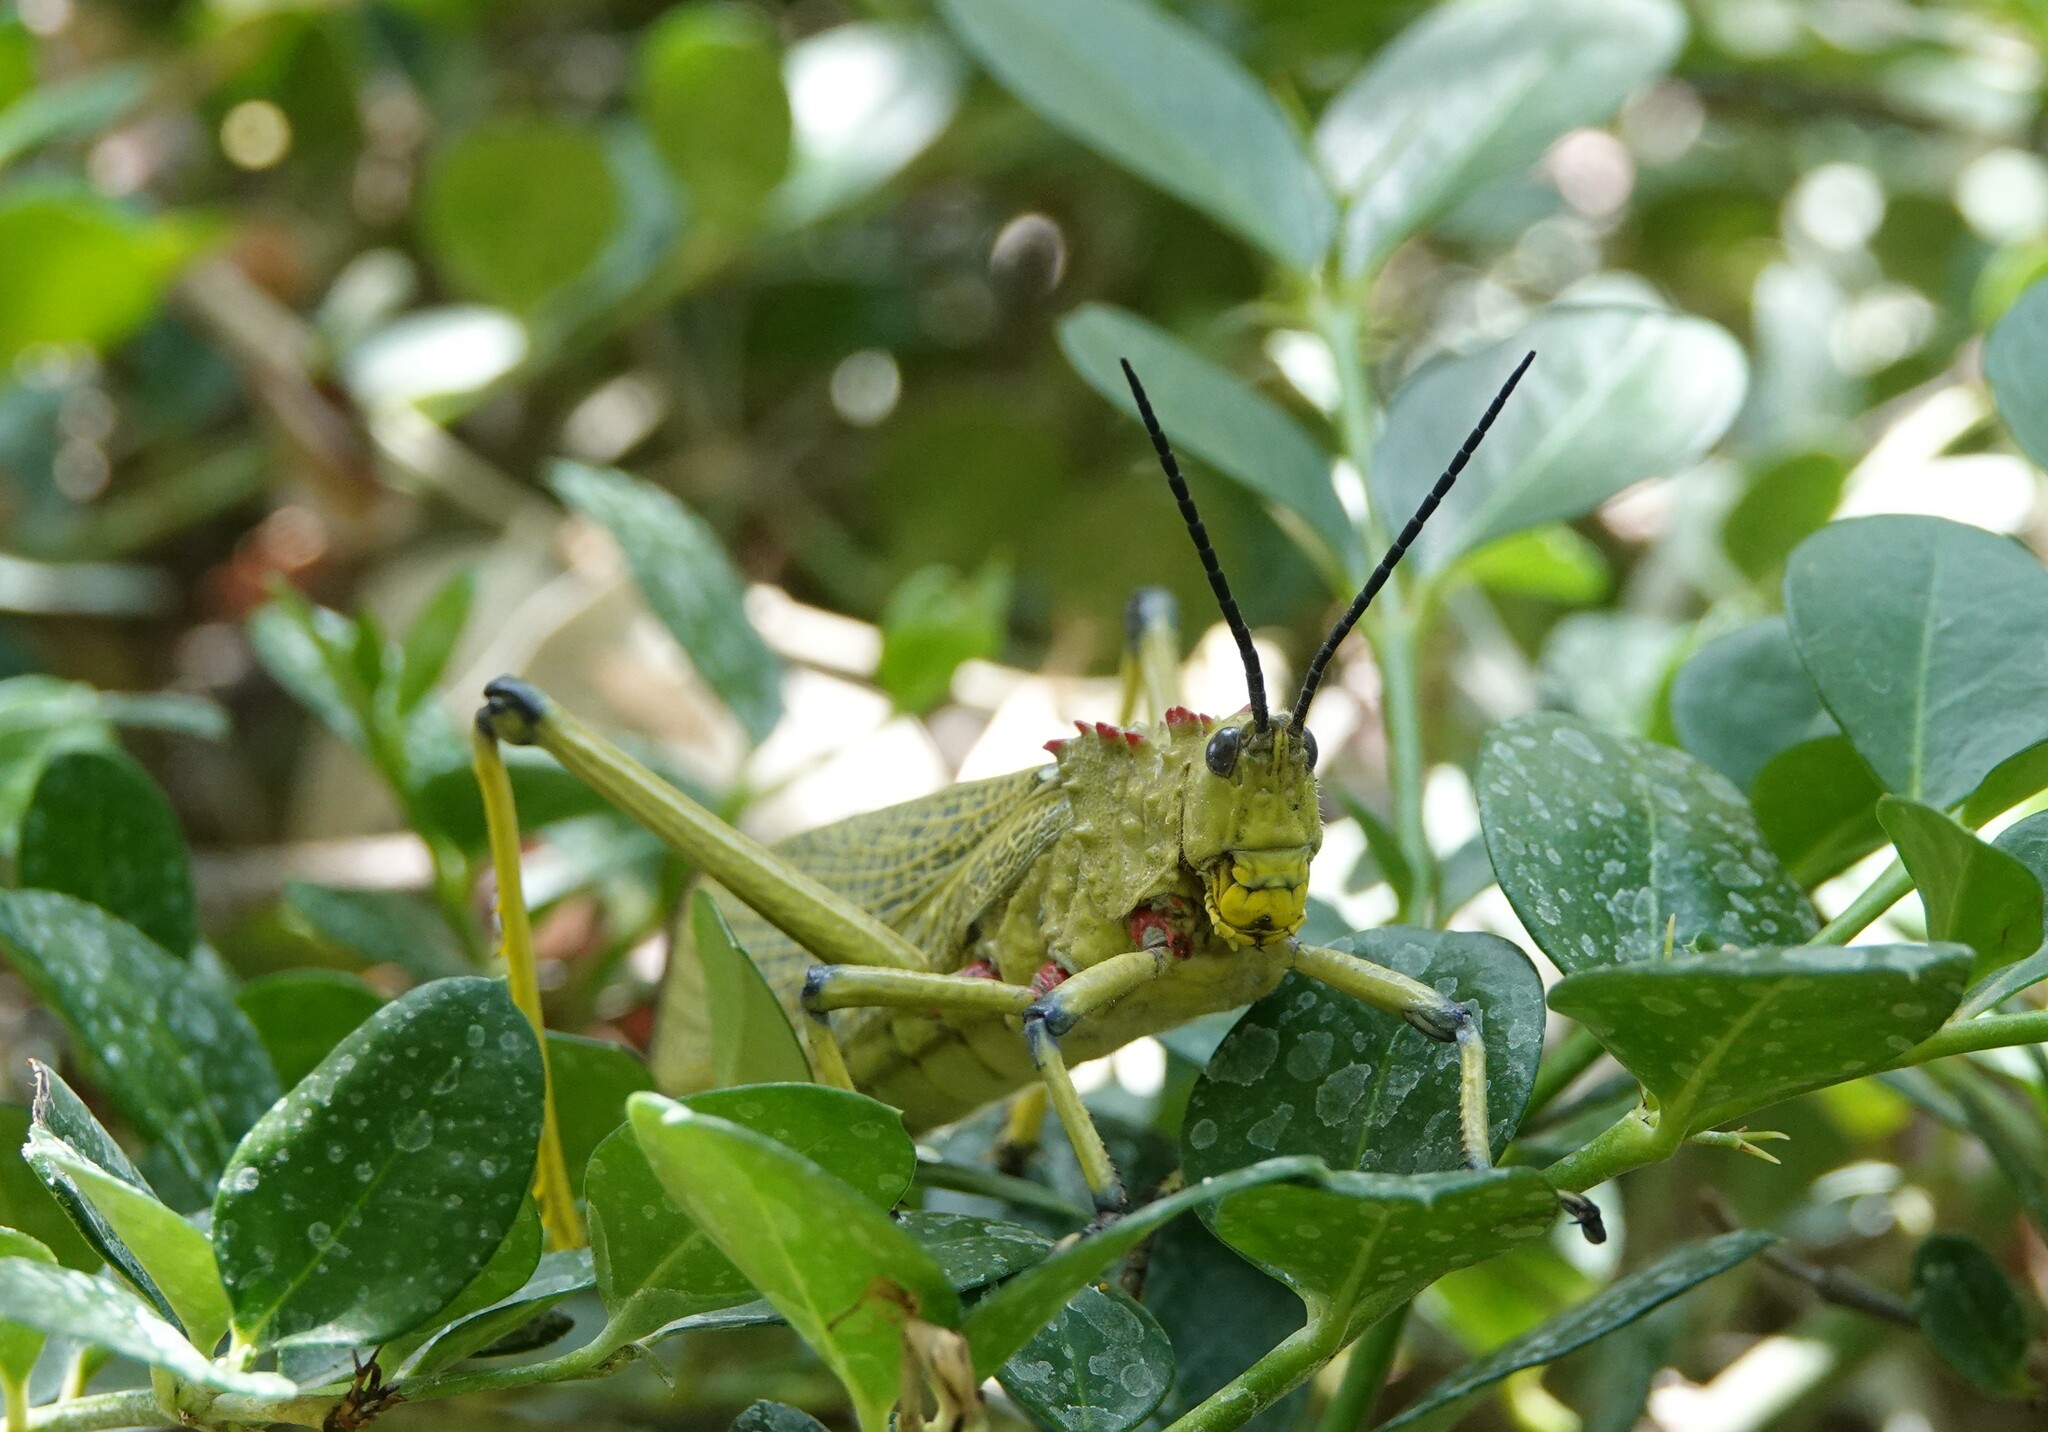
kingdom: Animalia
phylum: Arthropoda
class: Insecta
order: Orthoptera
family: Pyrgomorphidae
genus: Phymateus
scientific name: Phymateus viridipes
